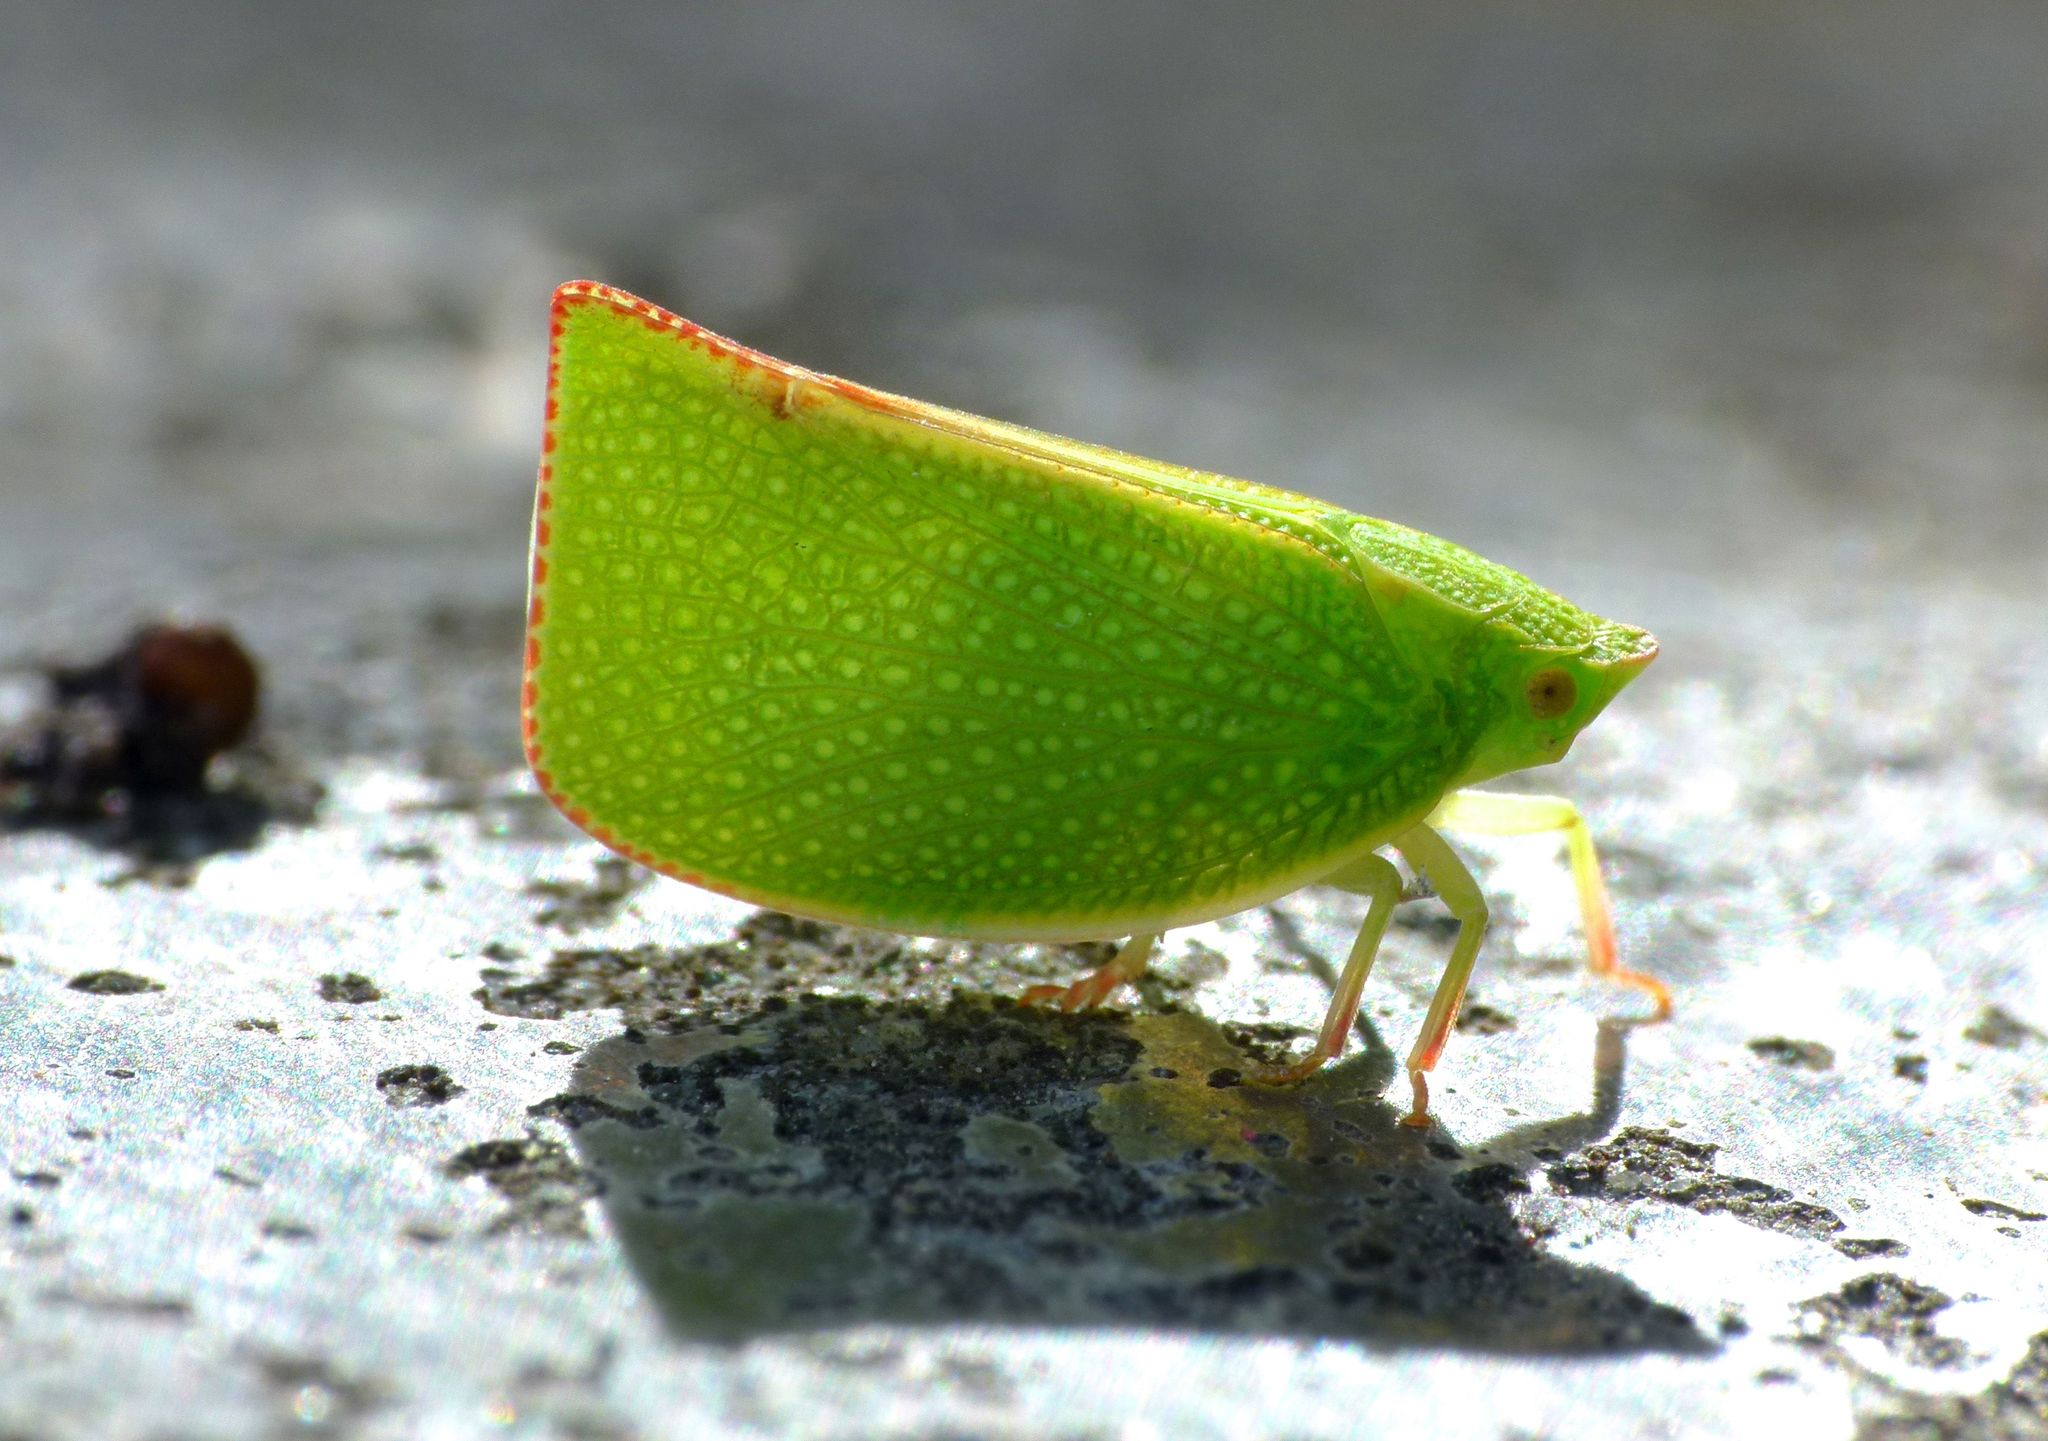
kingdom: Animalia
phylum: Arthropoda
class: Insecta
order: Hemiptera
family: Flatidae
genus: Siphanta
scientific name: Siphanta acuta
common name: Torpedo bug
